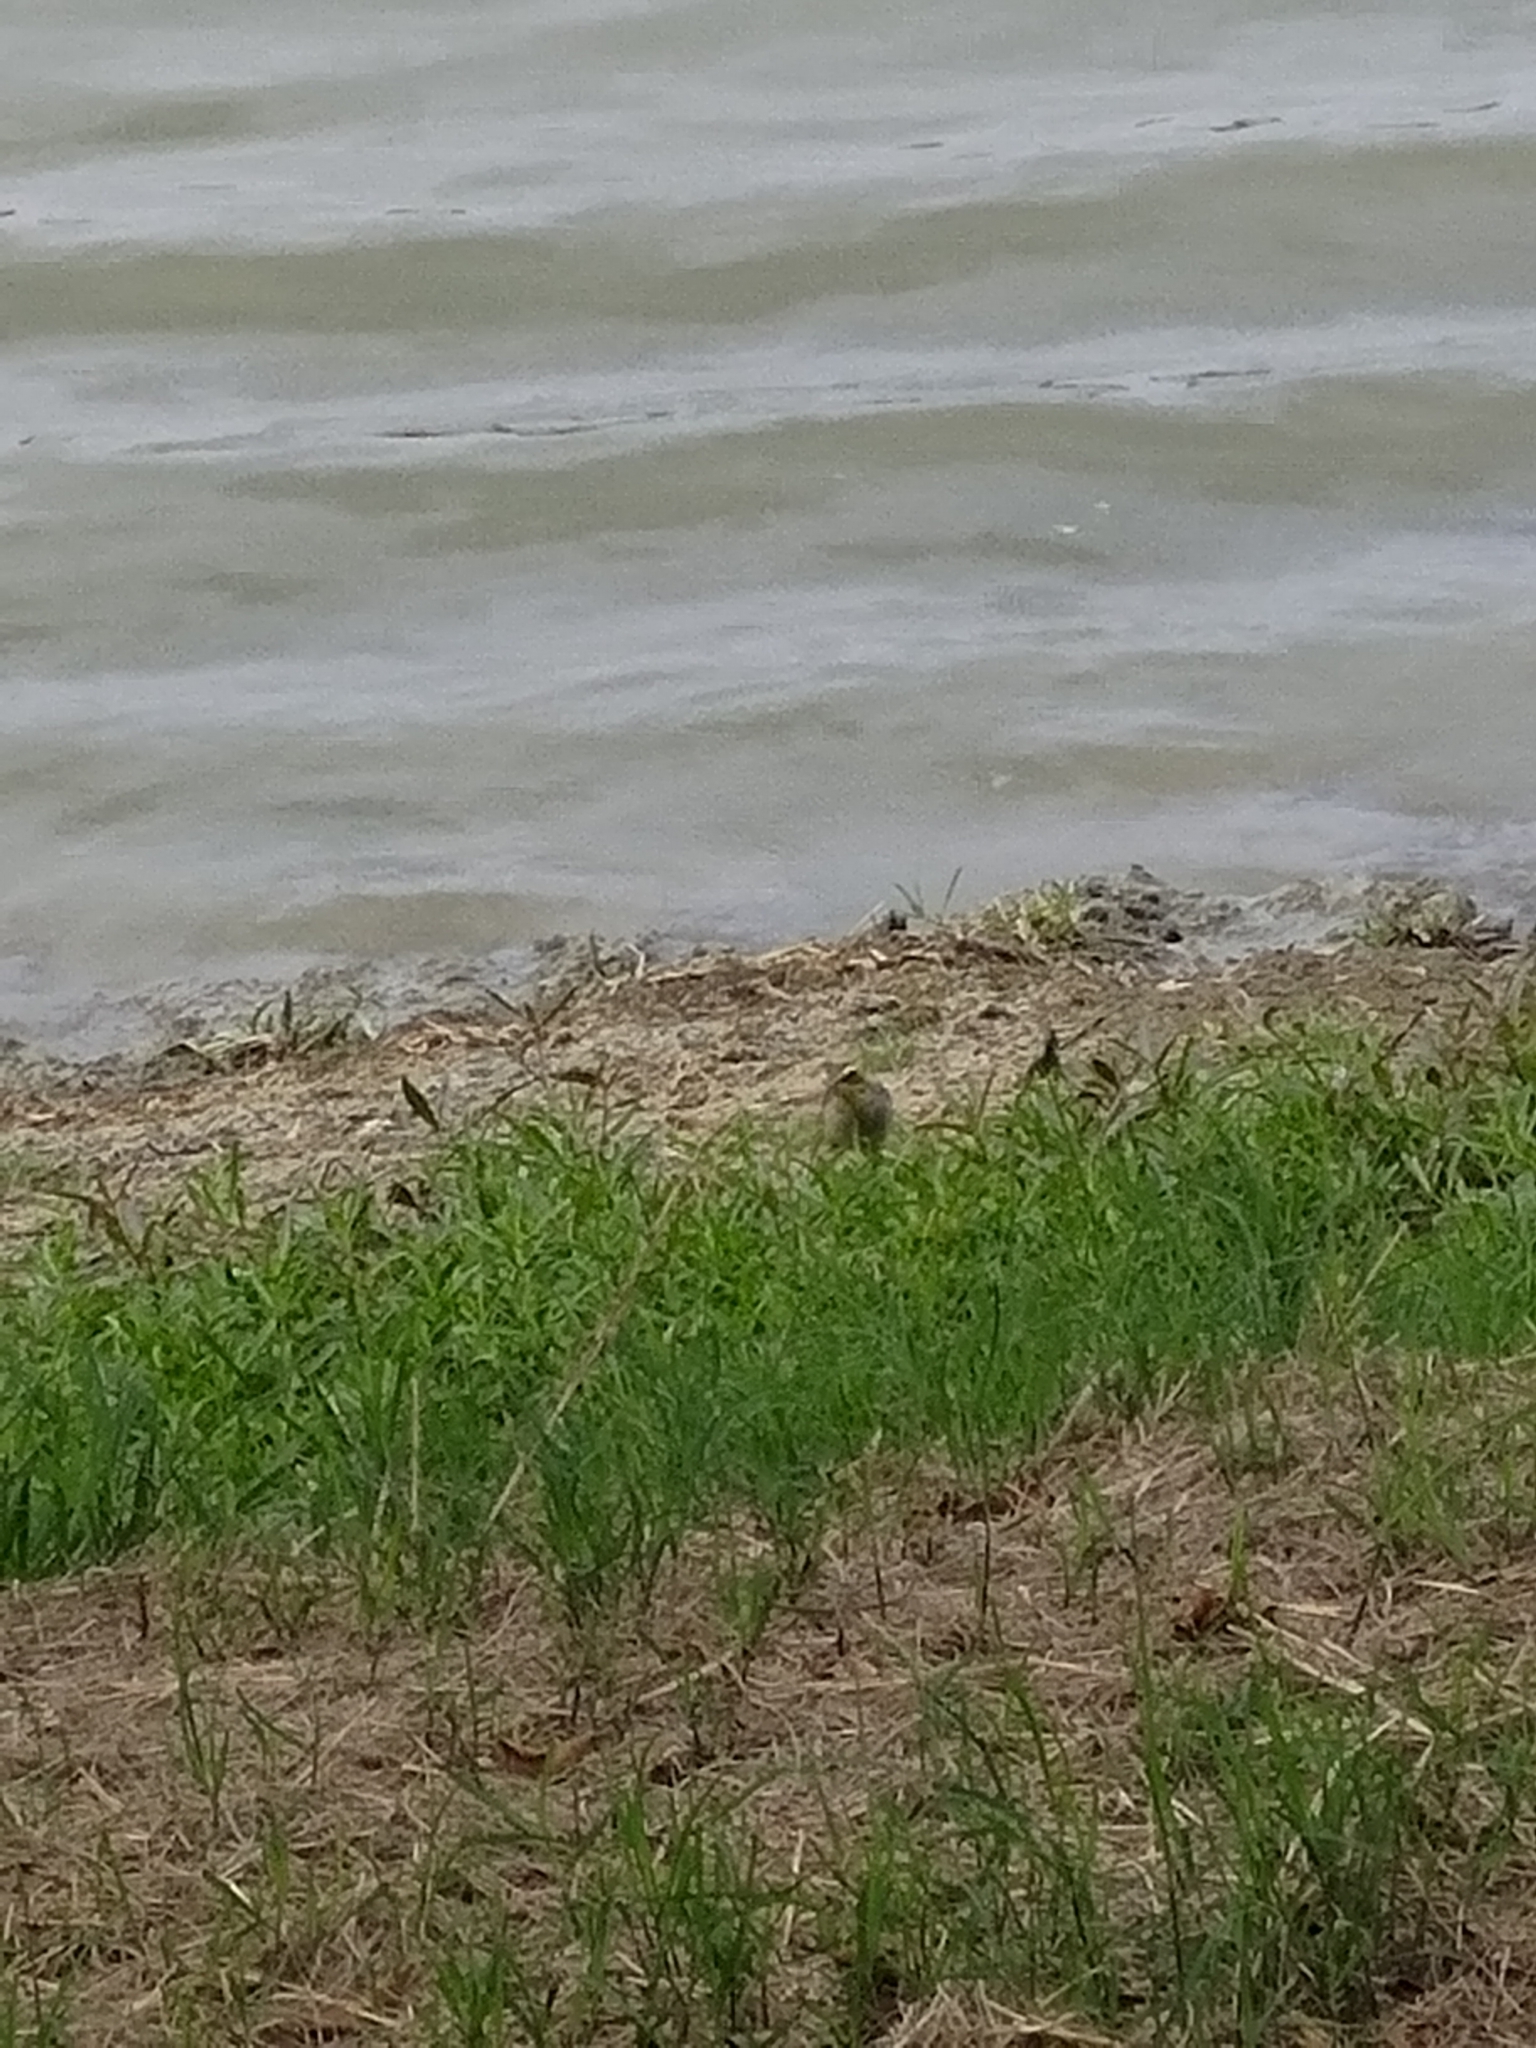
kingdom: Animalia
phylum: Chordata
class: Aves
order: Passeriformes
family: Motacillidae
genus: Motacilla
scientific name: Motacilla tschutschensis
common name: Eastern yellow wagtail
